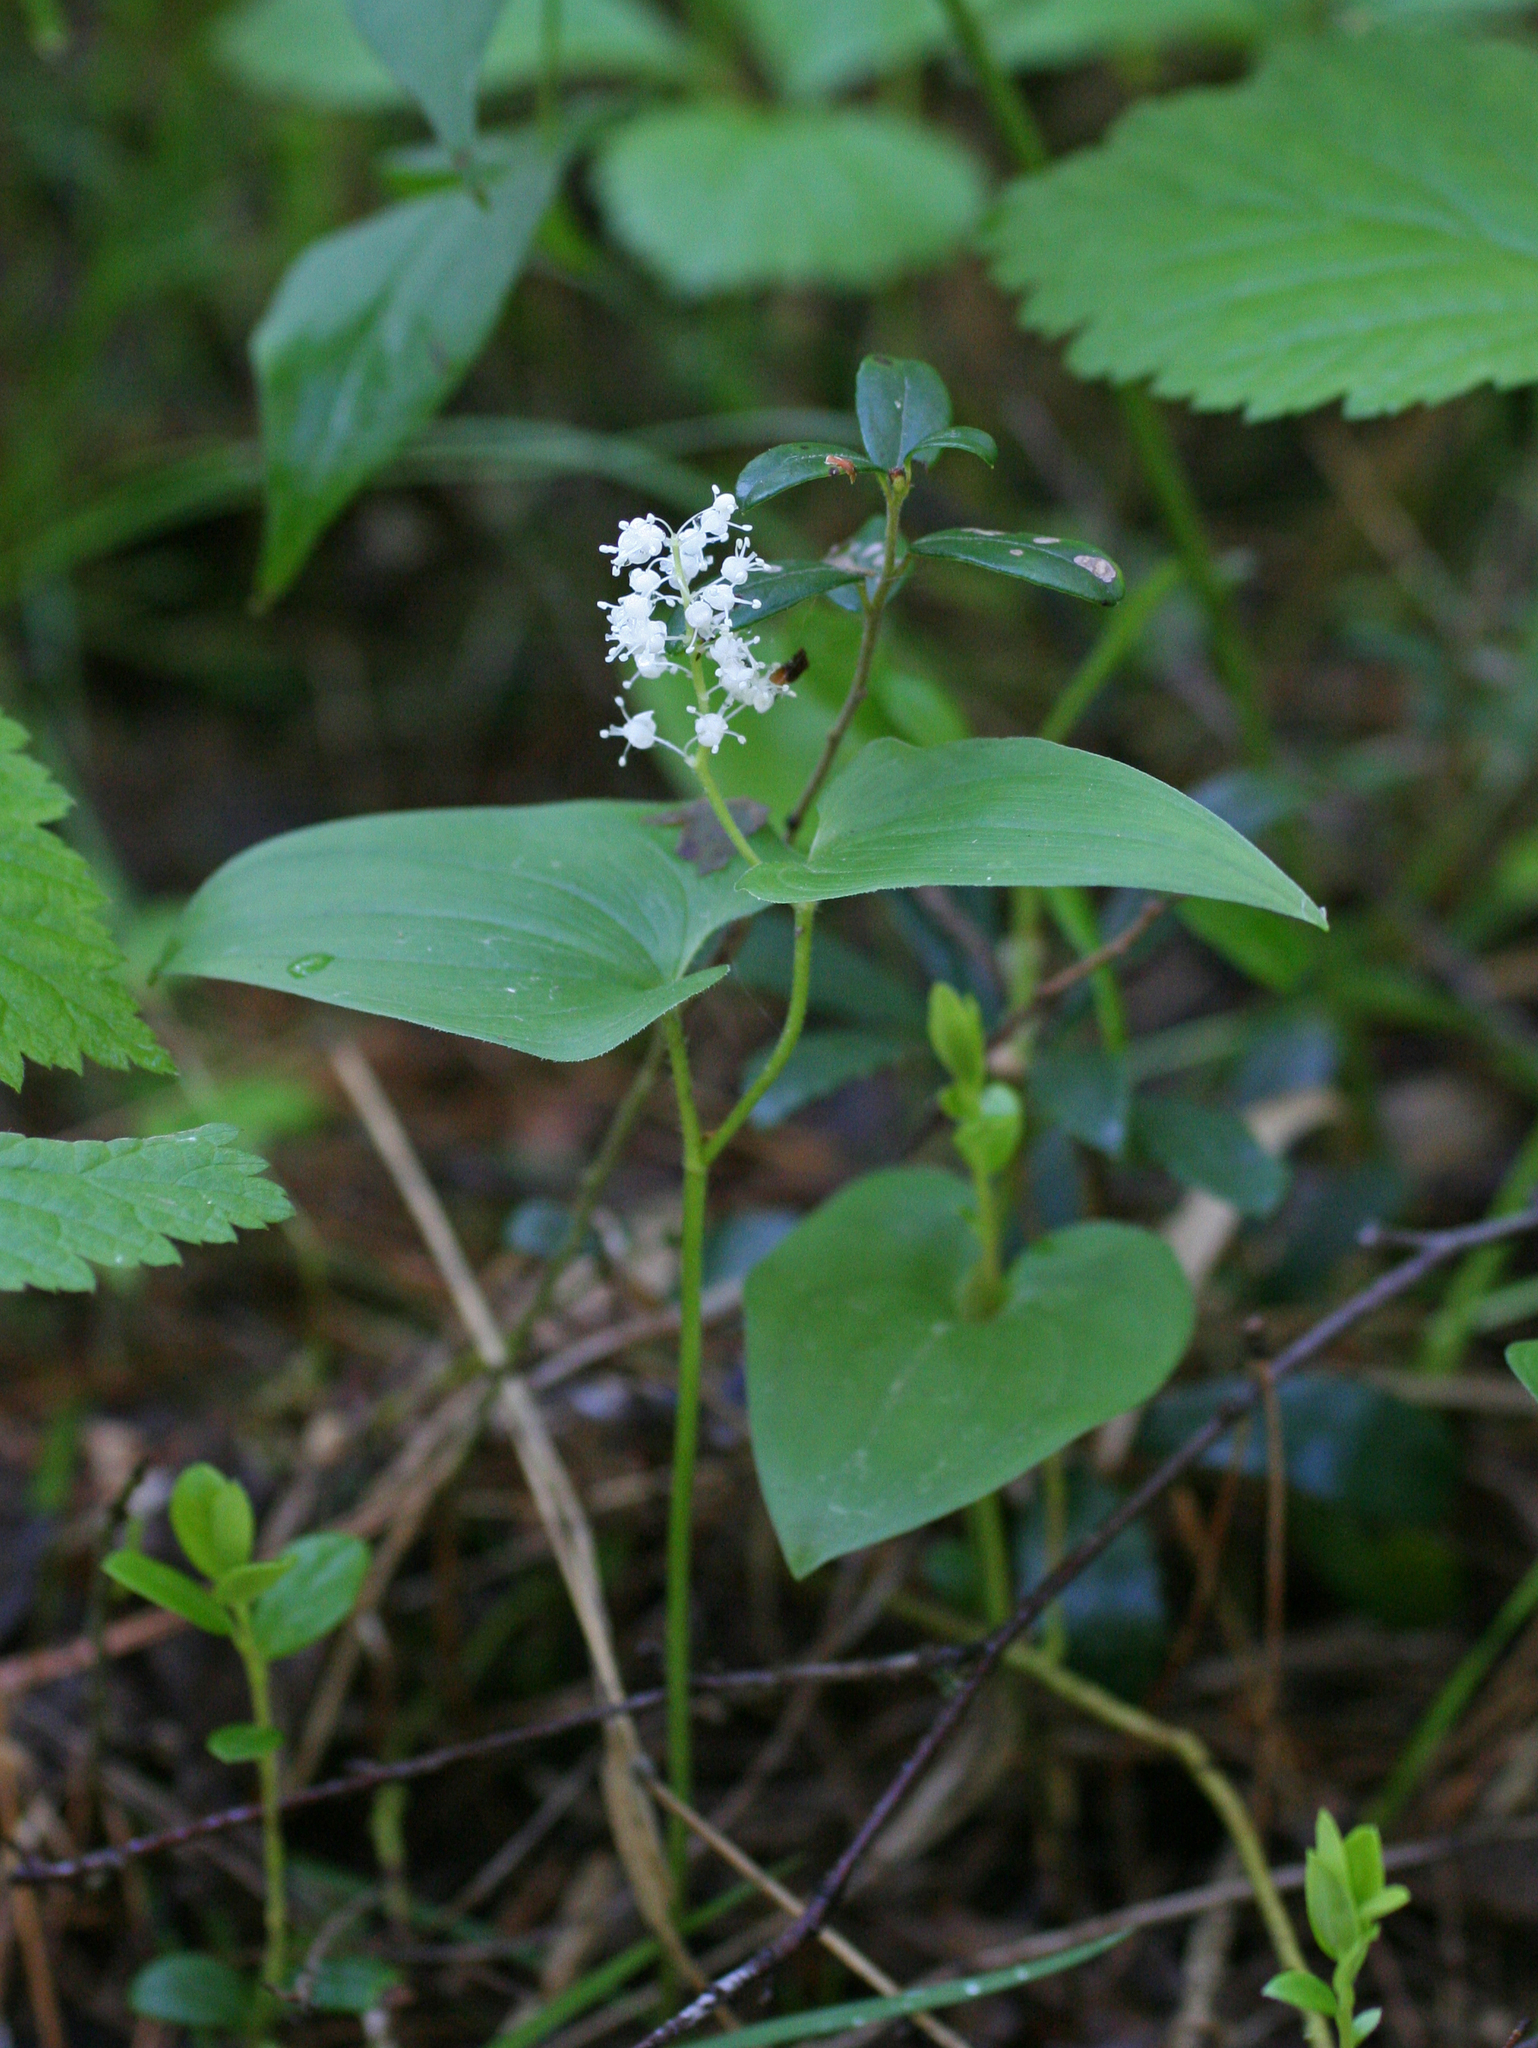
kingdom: Plantae
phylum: Tracheophyta
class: Liliopsida
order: Asparagales
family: Asparagaceae
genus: Maianthemum
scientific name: Maianthemum bifolium
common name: May lily
